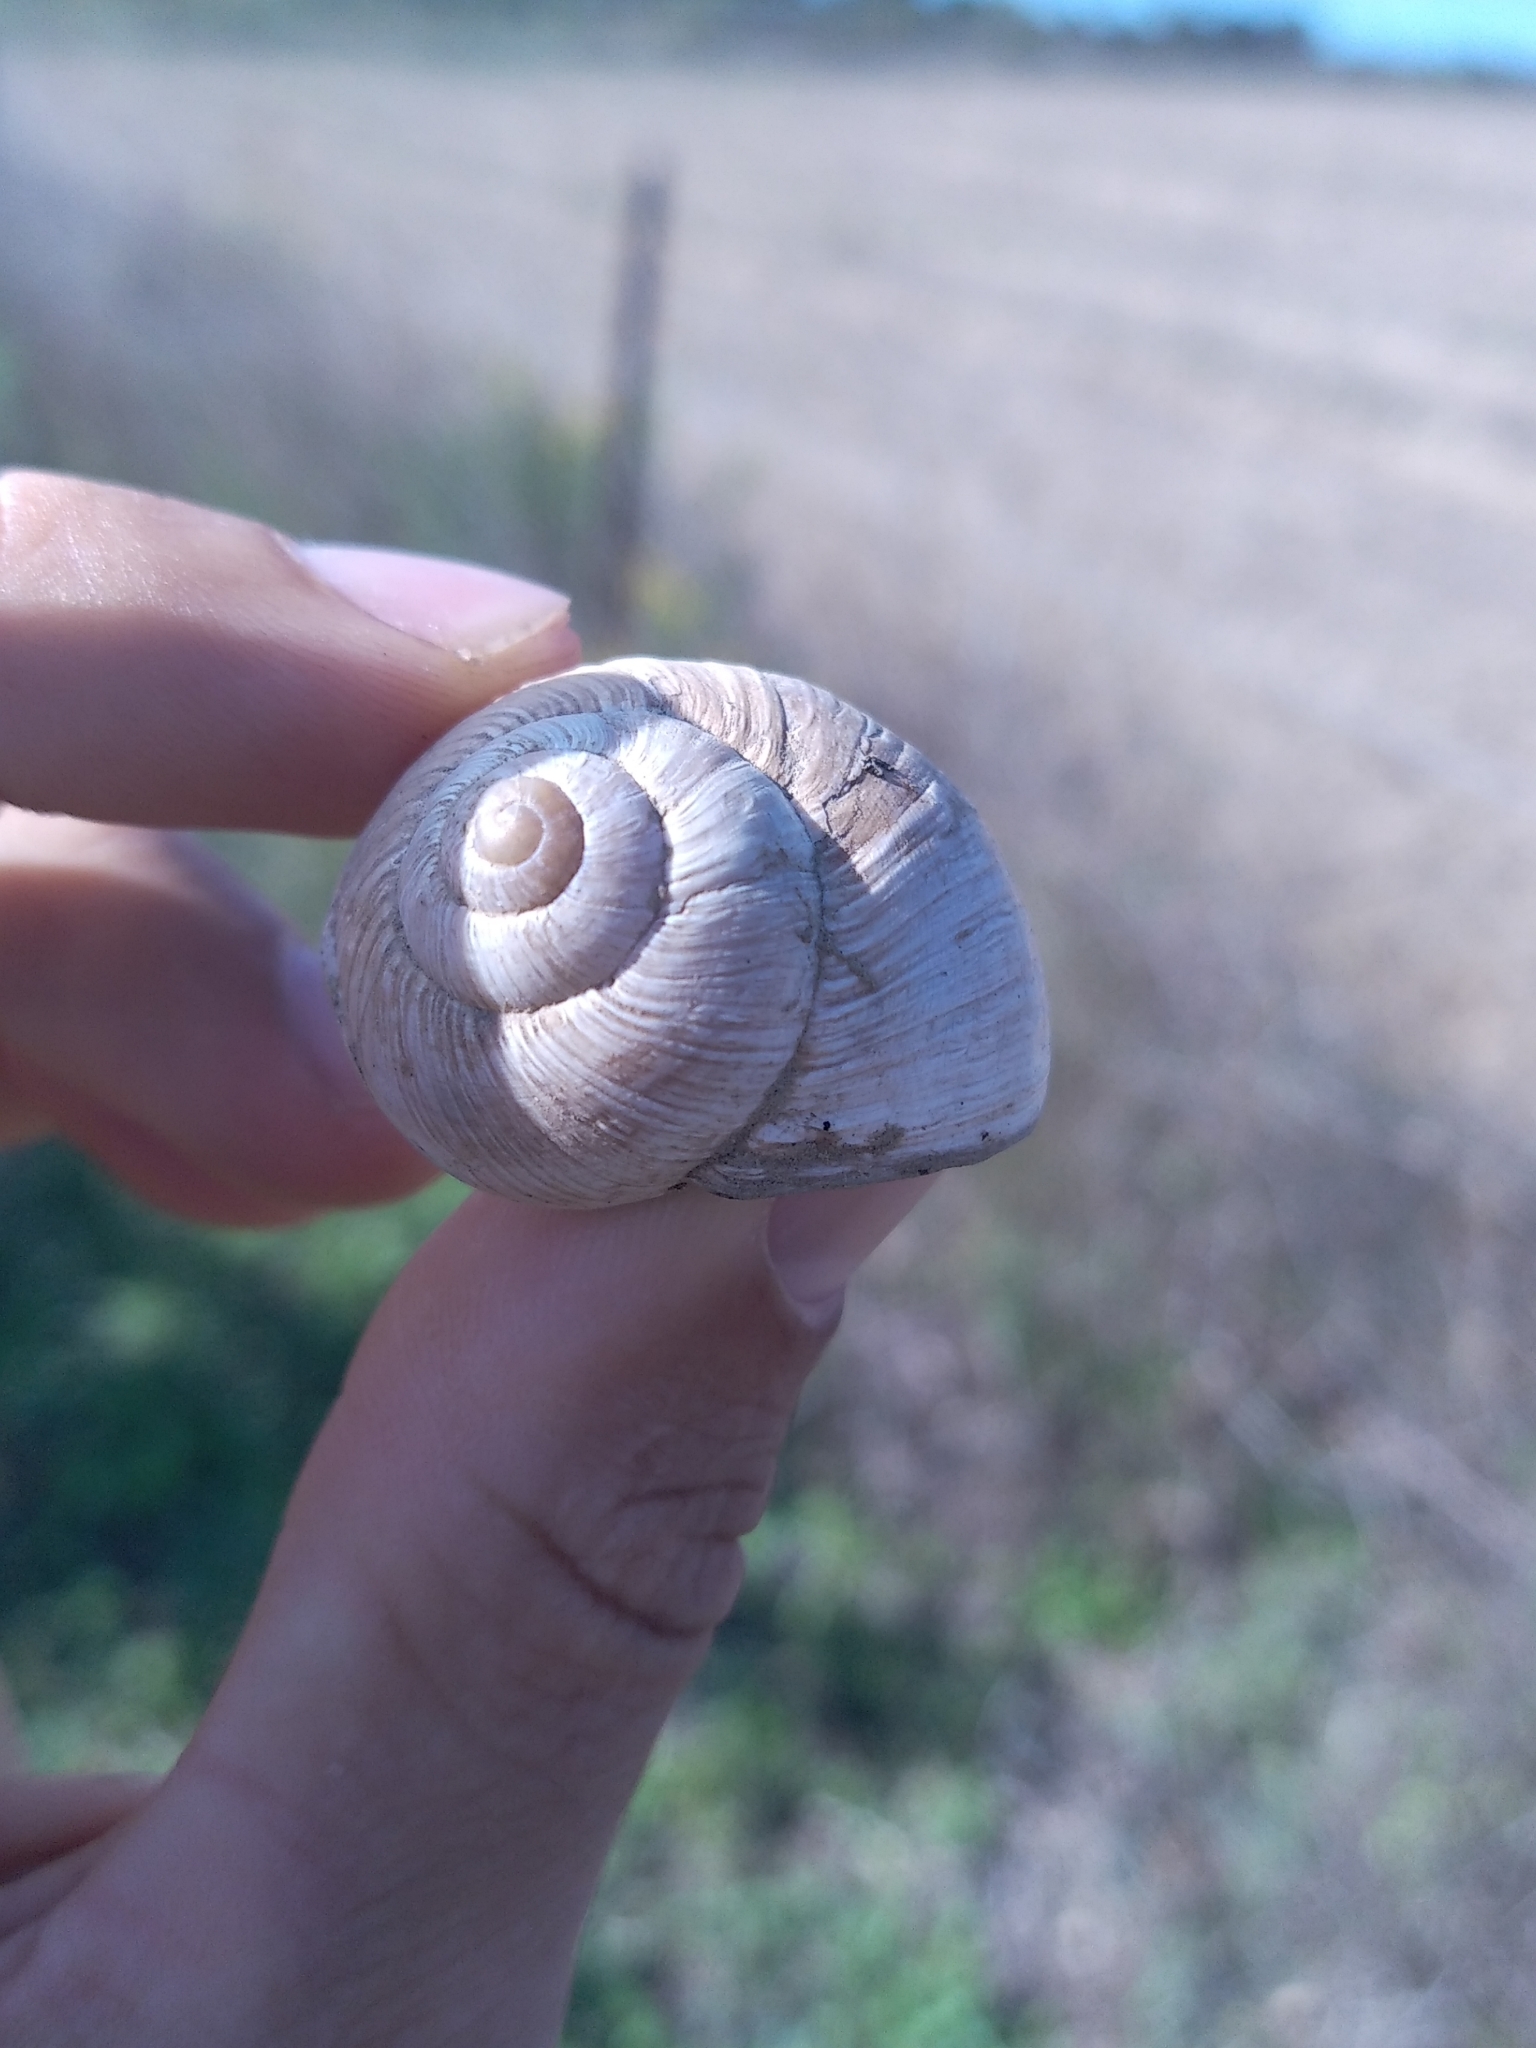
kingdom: Animalia
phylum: Mollusca
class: Gastropoda
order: Stylommatophora
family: Helicidae
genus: Helix
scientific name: Helix melanostoma
